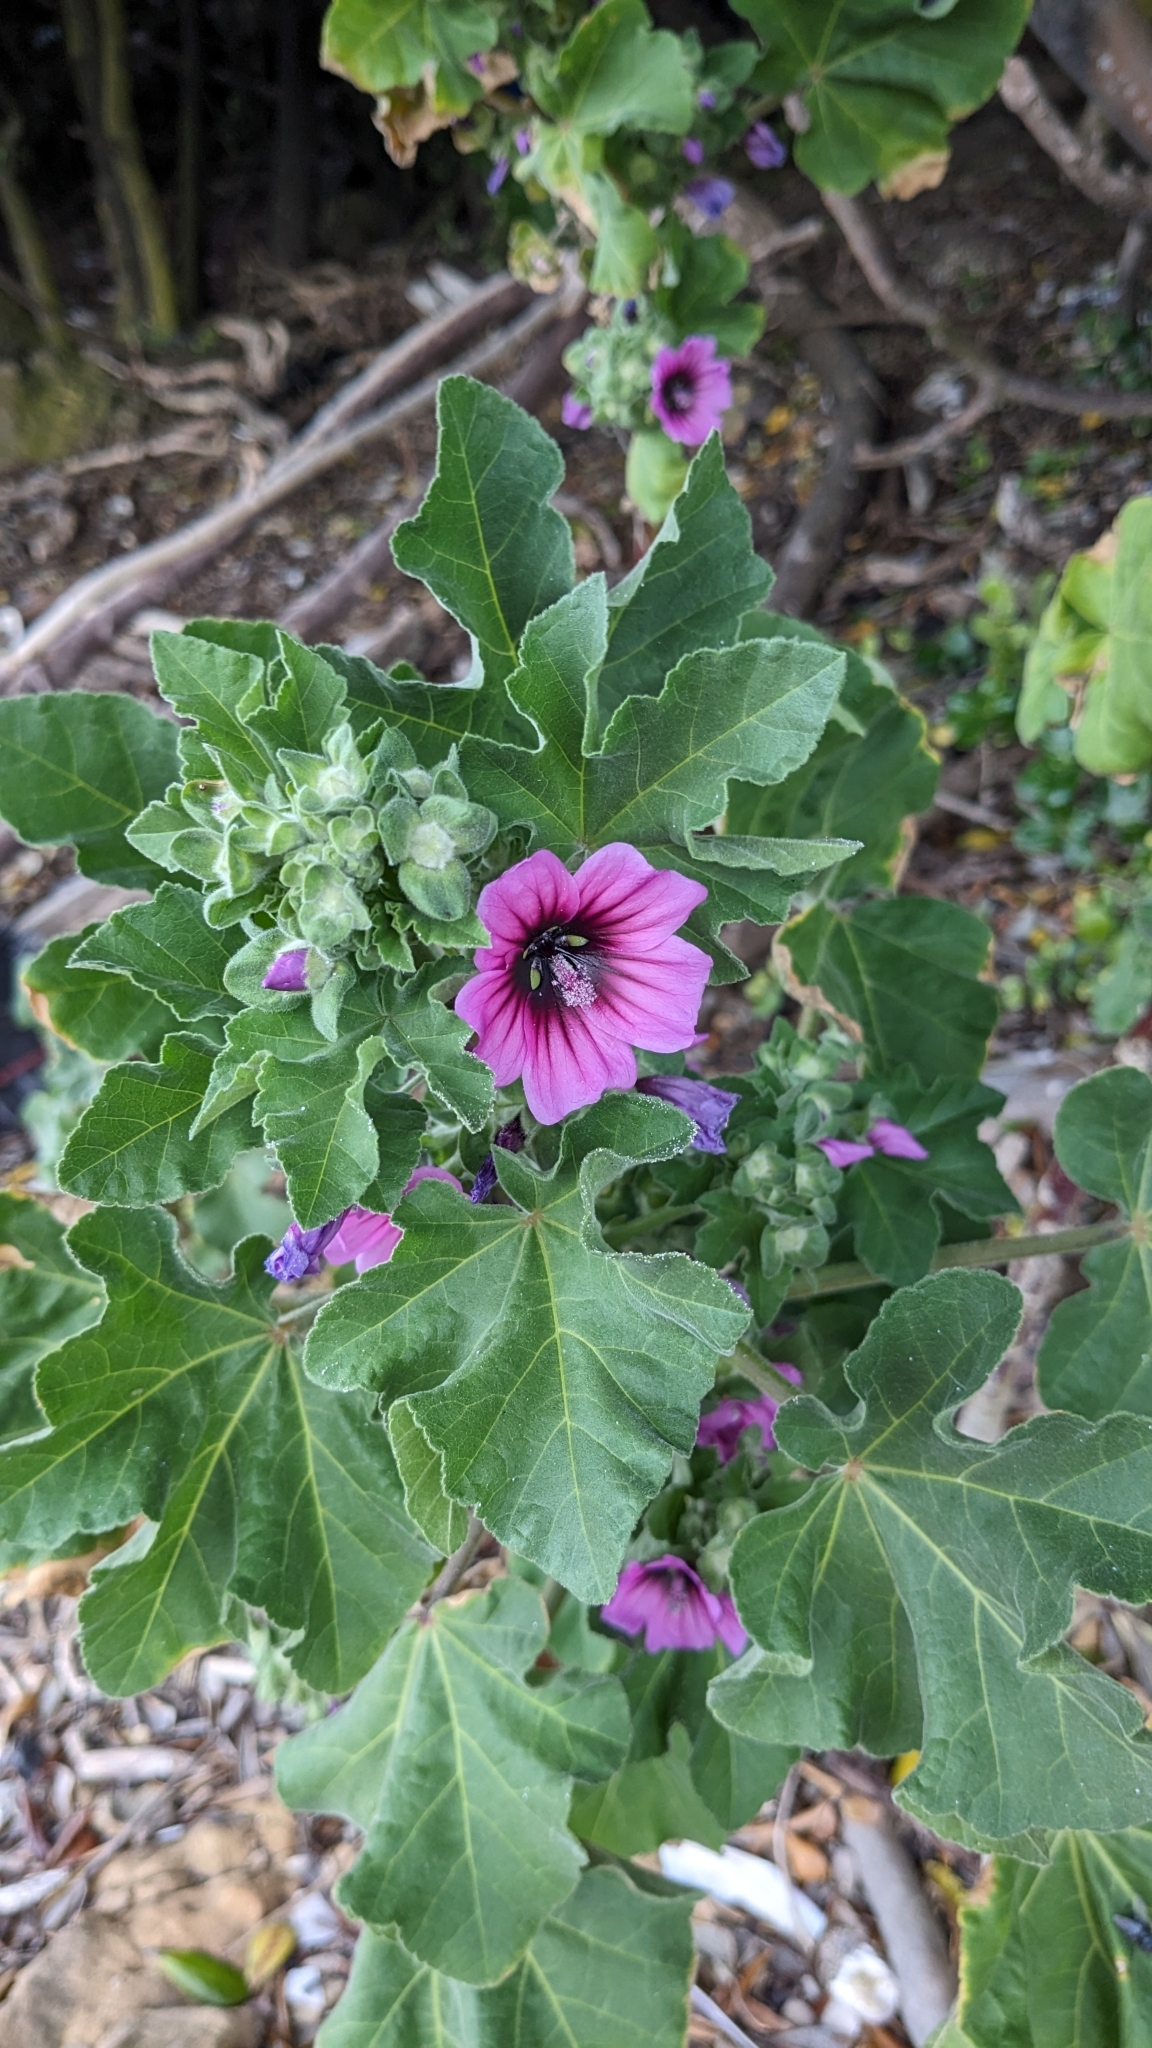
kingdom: Plantae
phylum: Tracheophyta
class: Magnoliopsida
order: Malvales
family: Malvaceae
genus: Malva
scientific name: Malva arborea
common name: Tree mallow
